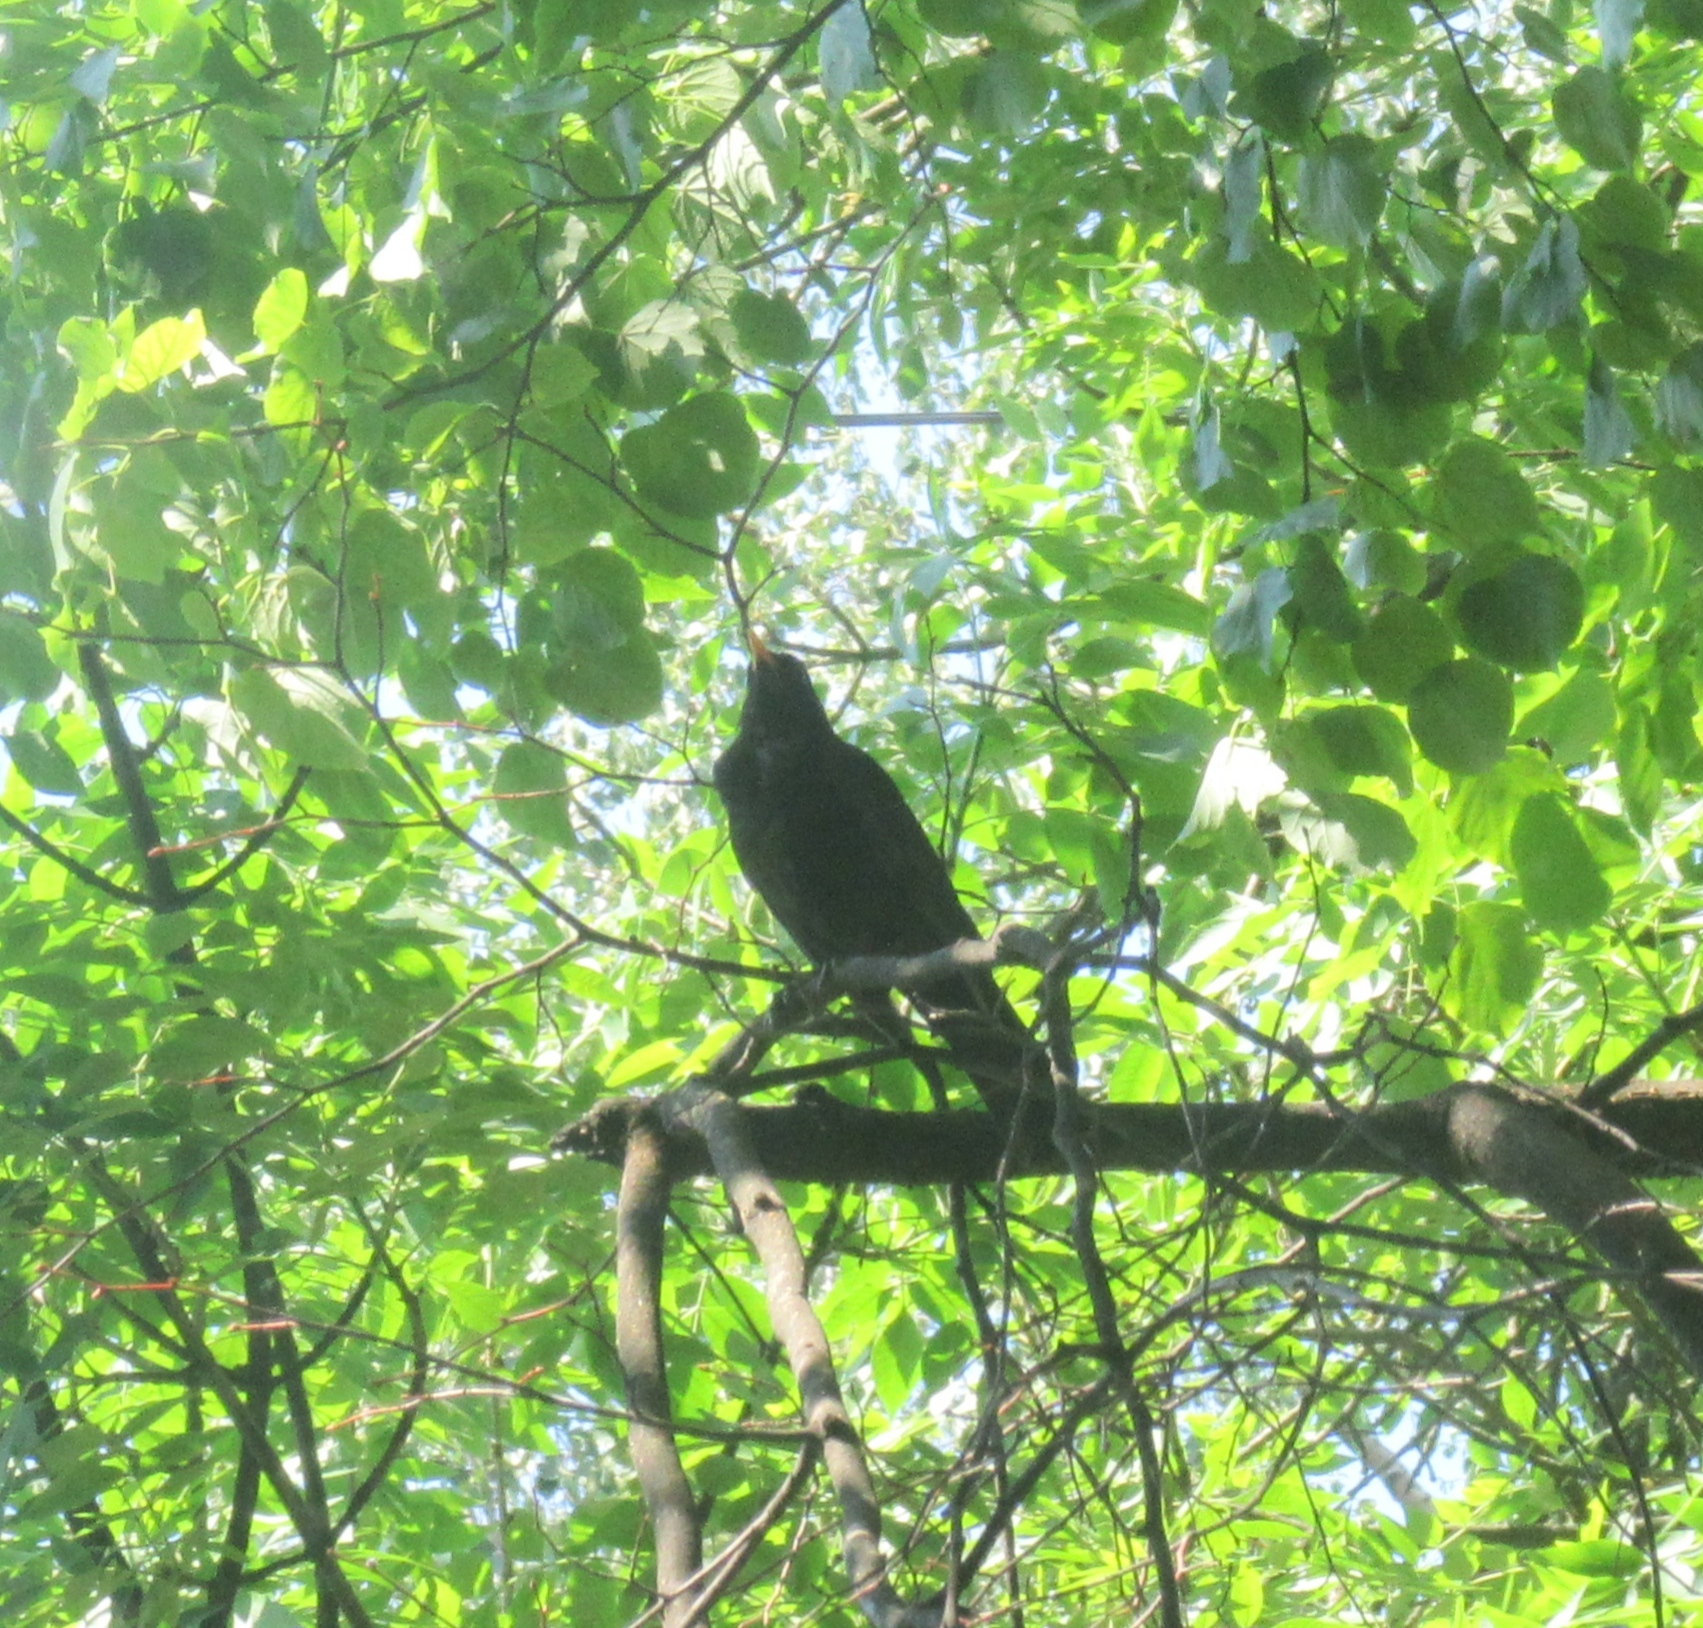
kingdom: Animalia
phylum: Chordata
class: Aves
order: Passeriformes
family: Turdidae
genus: Turdus
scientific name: Turdus merula
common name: Common blackbird
